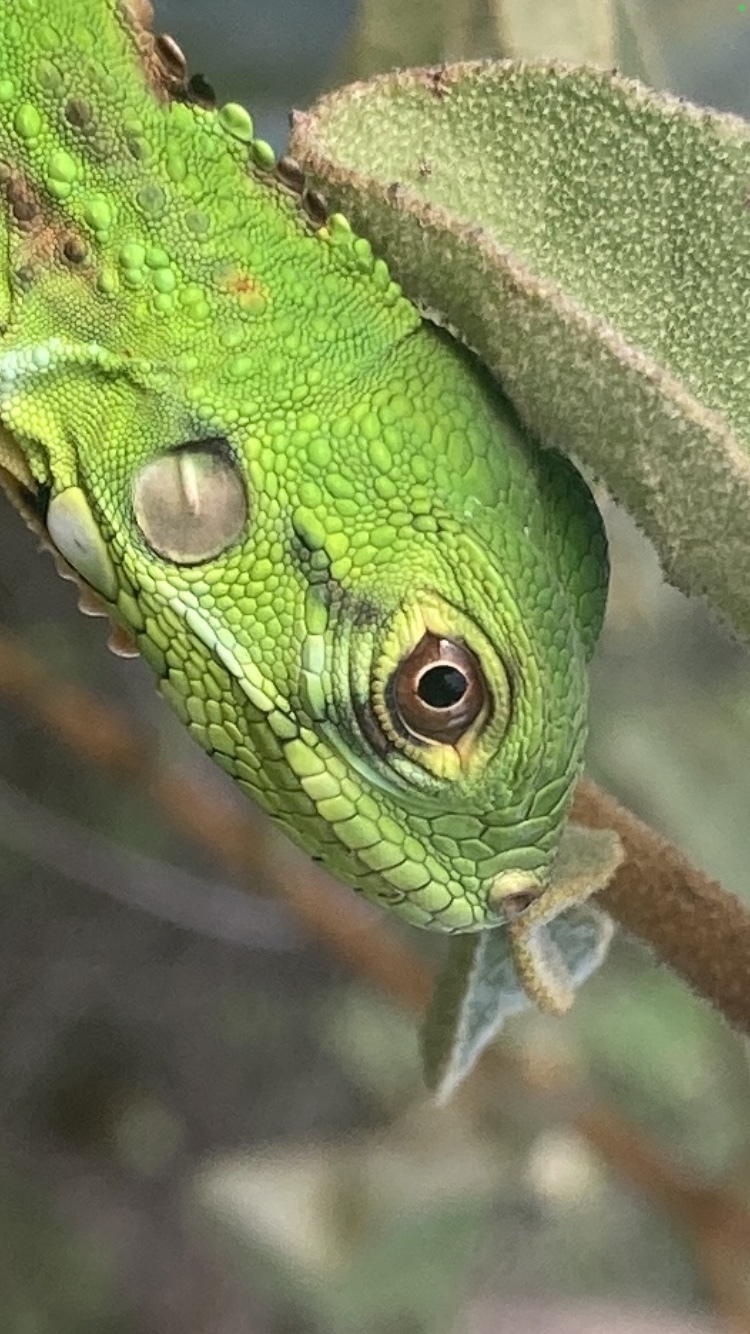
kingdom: Animalia
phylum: Chordata
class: Squamata
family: Iguanidae
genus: Iguana
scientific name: Iguana iguana
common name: Green iguana
